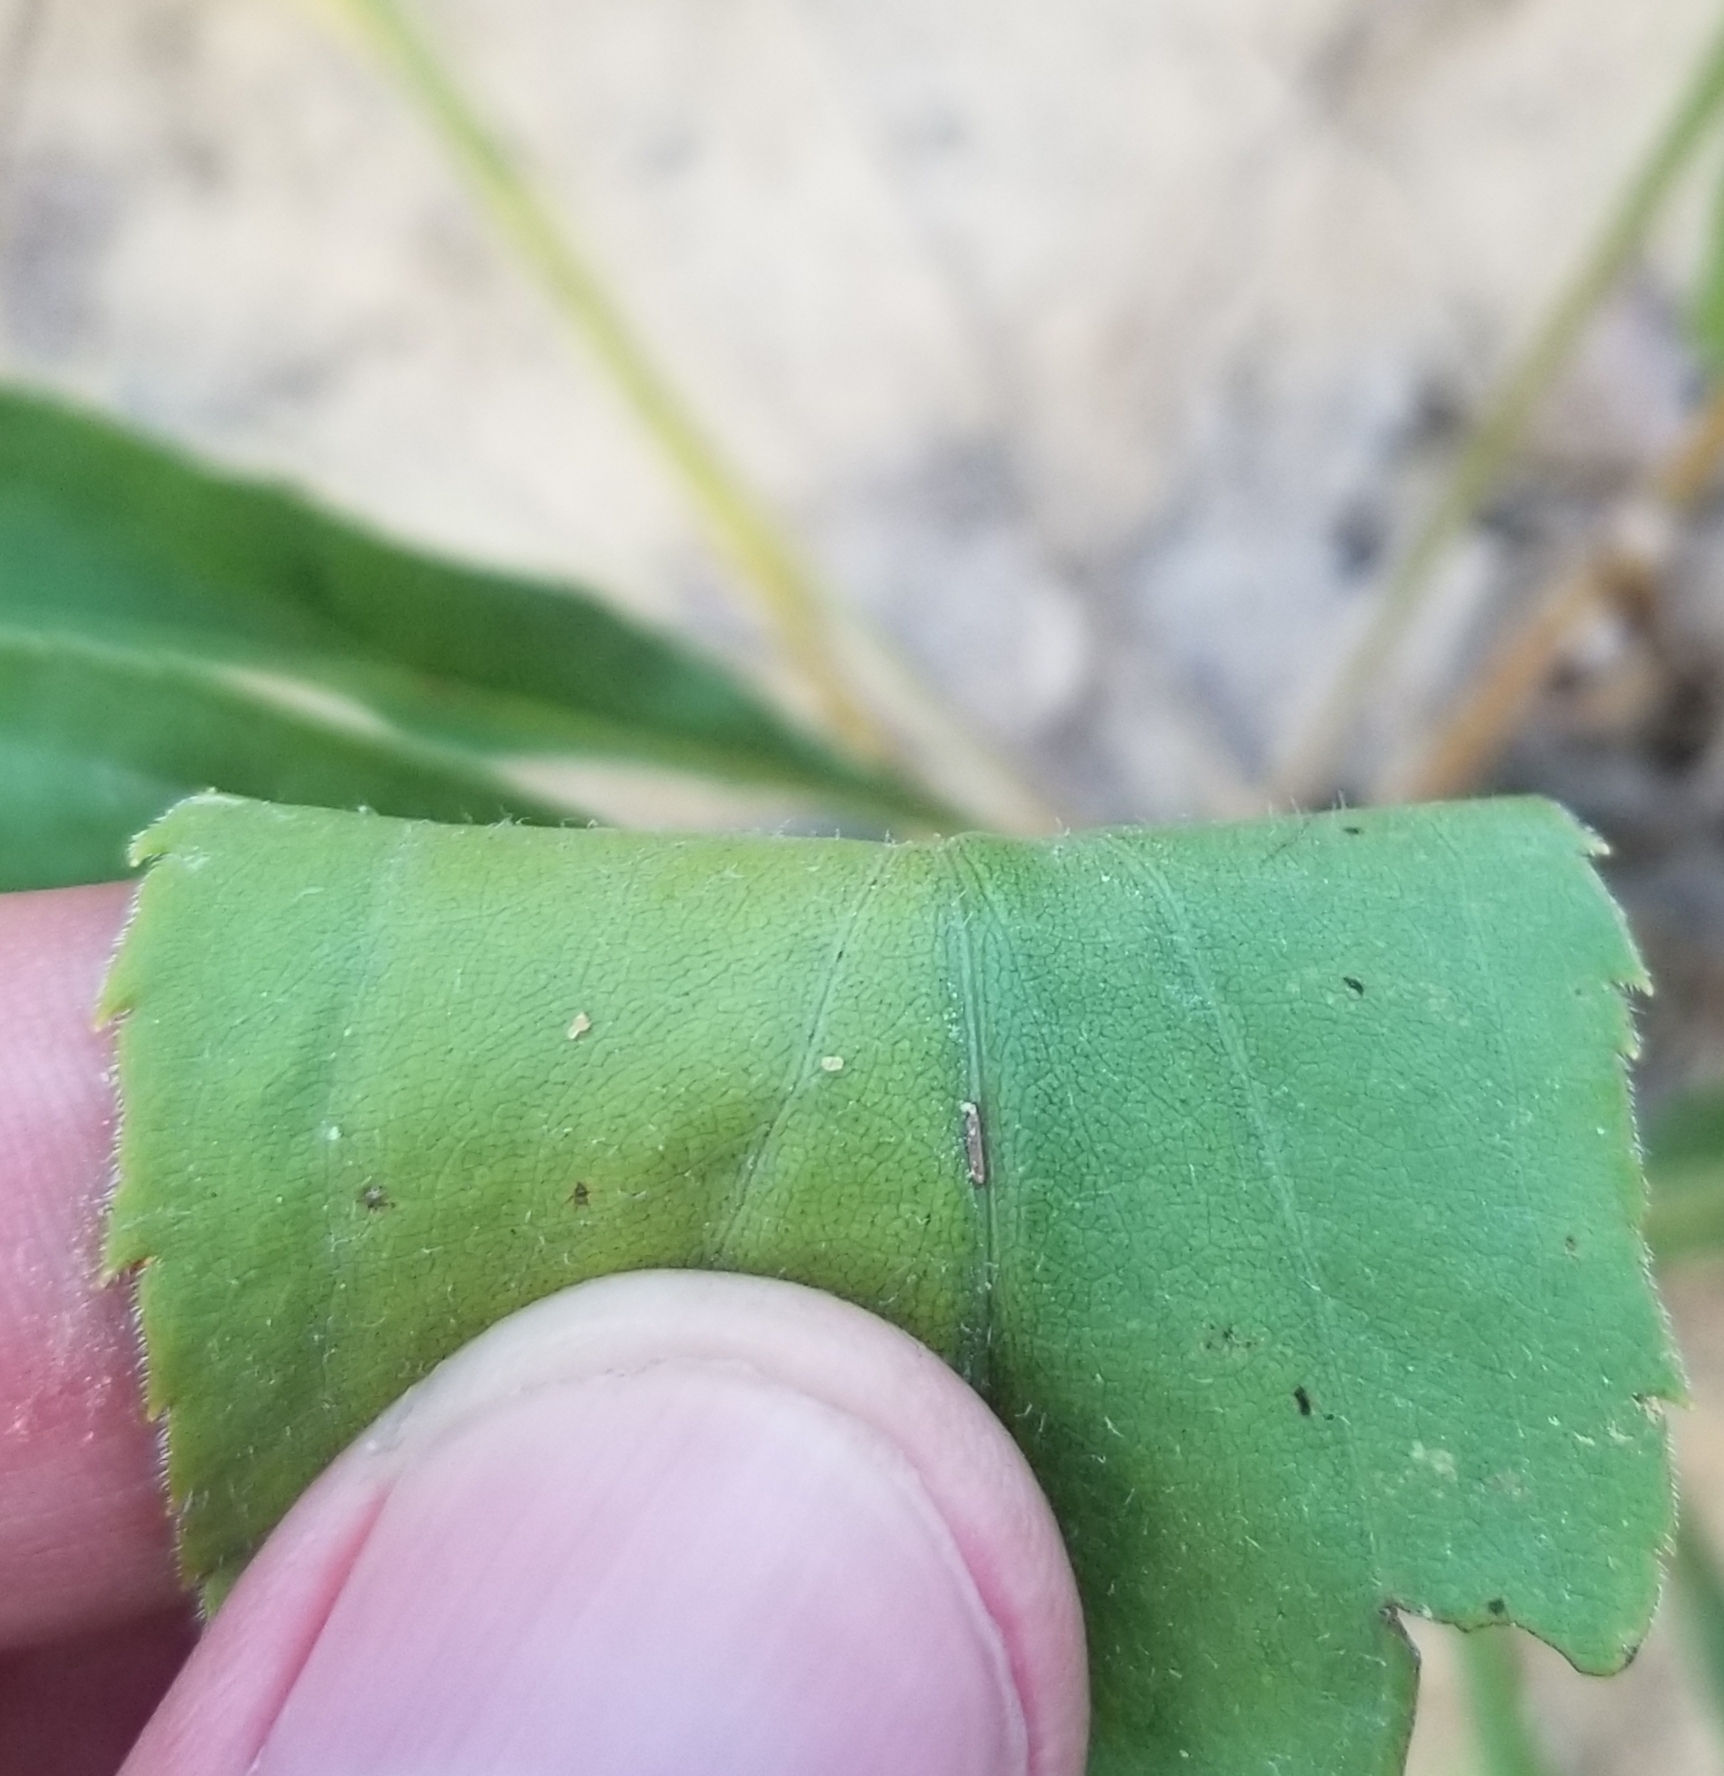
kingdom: Plantae
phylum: Tracheophyta
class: Magnoliopsida
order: Asterales
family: Asteraceae
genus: Solidago
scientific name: Solidago juncea
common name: Early goldenrod
